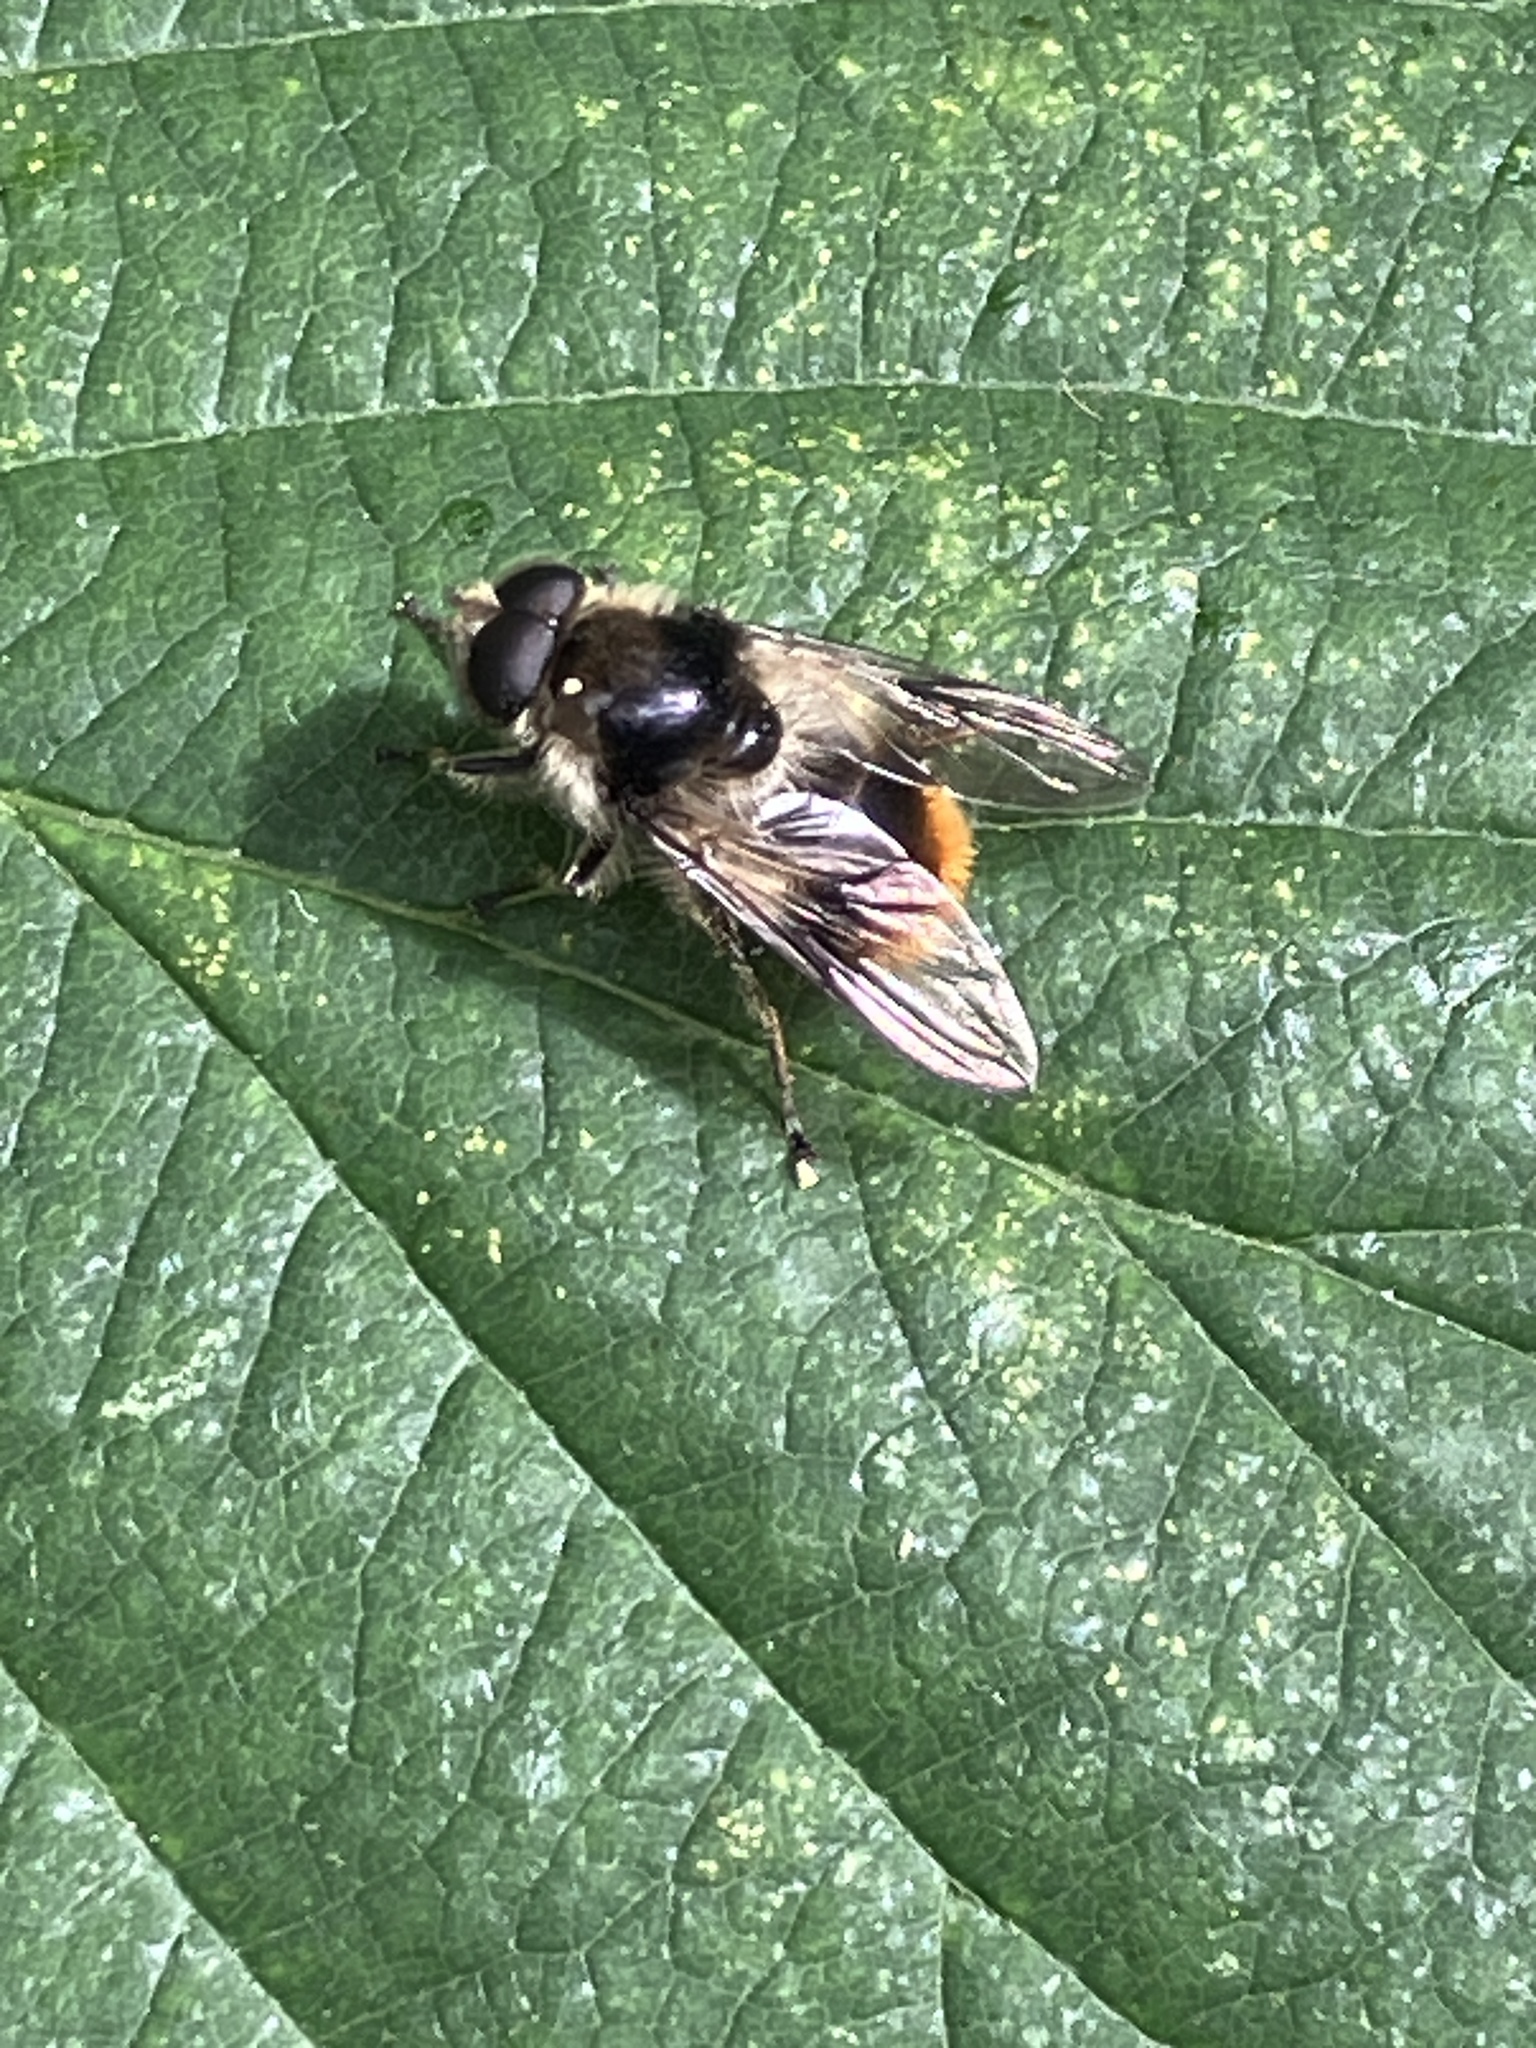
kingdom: Animalia
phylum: Arthropoda
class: Insecta
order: Diptera
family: Syrphidae
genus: Cheilosia
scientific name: Cheilosia illustrata
